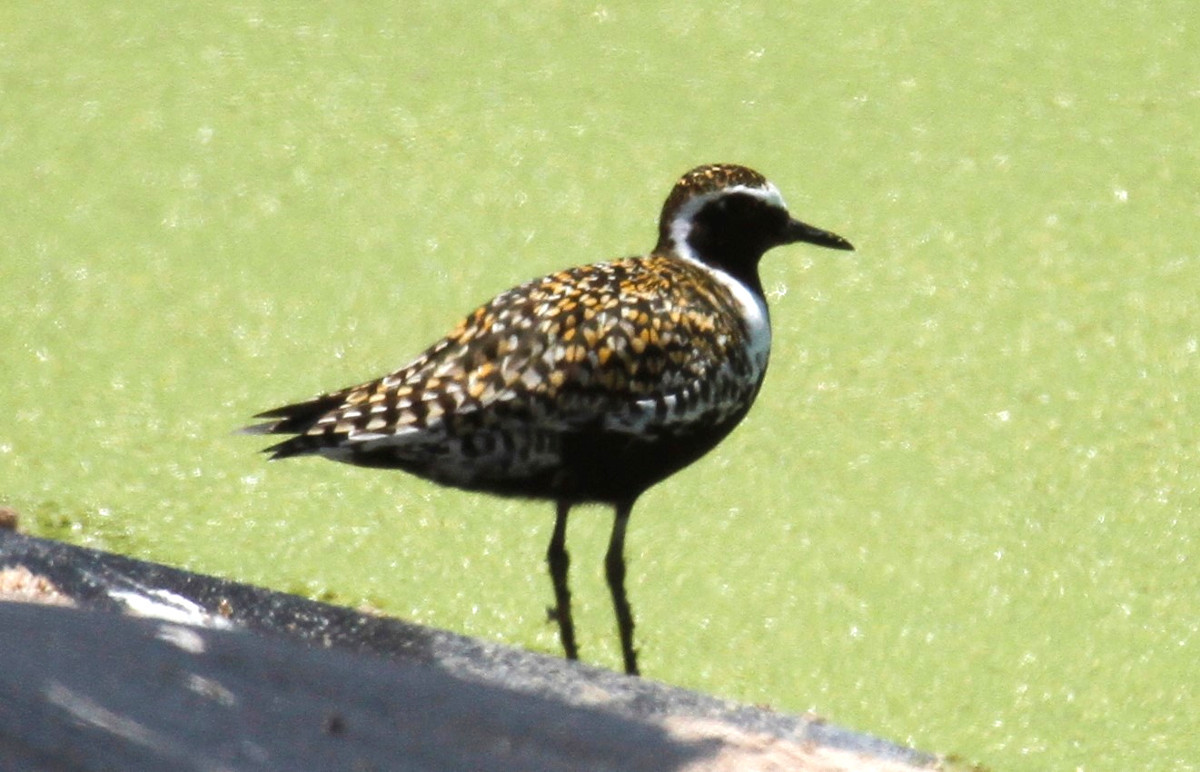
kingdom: Animalia
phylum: Chordata
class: Aves
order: Charadriiformes
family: Charadriidae
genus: Pluvialis
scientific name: Pluvialis fulva
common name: Pacific golden plover
